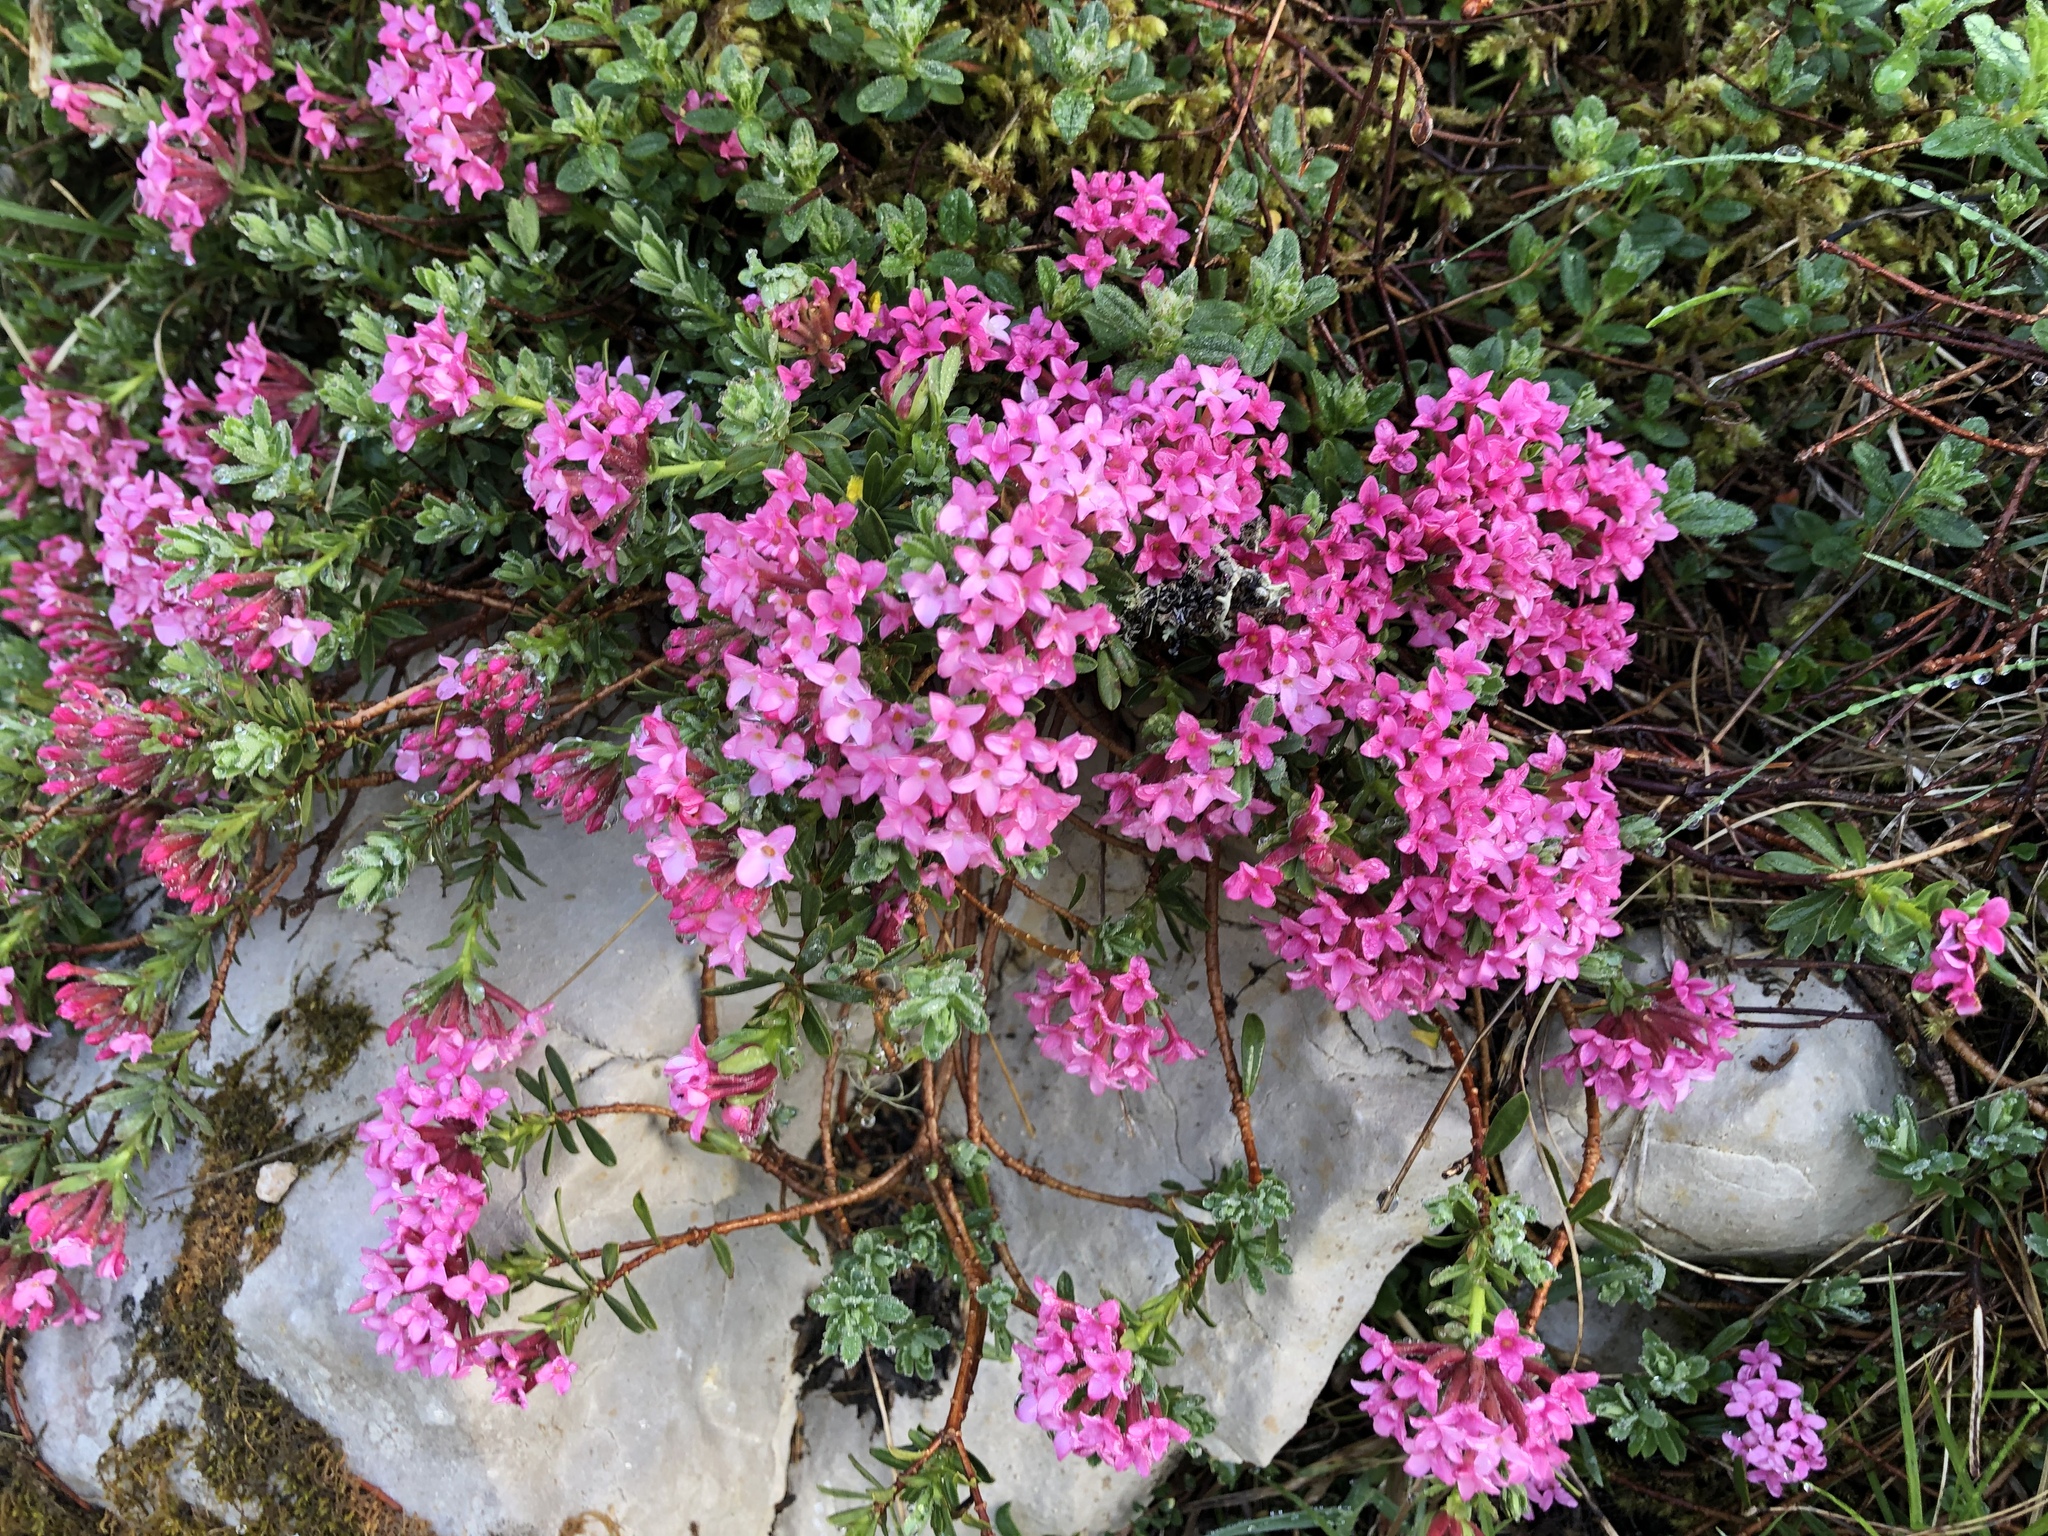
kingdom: Plantae
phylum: Tracheophyta
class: Magnoliopsida
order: Malvales
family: Thymelaeaceae
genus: Daphne
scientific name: Daphne cneorum
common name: Garland-flower
